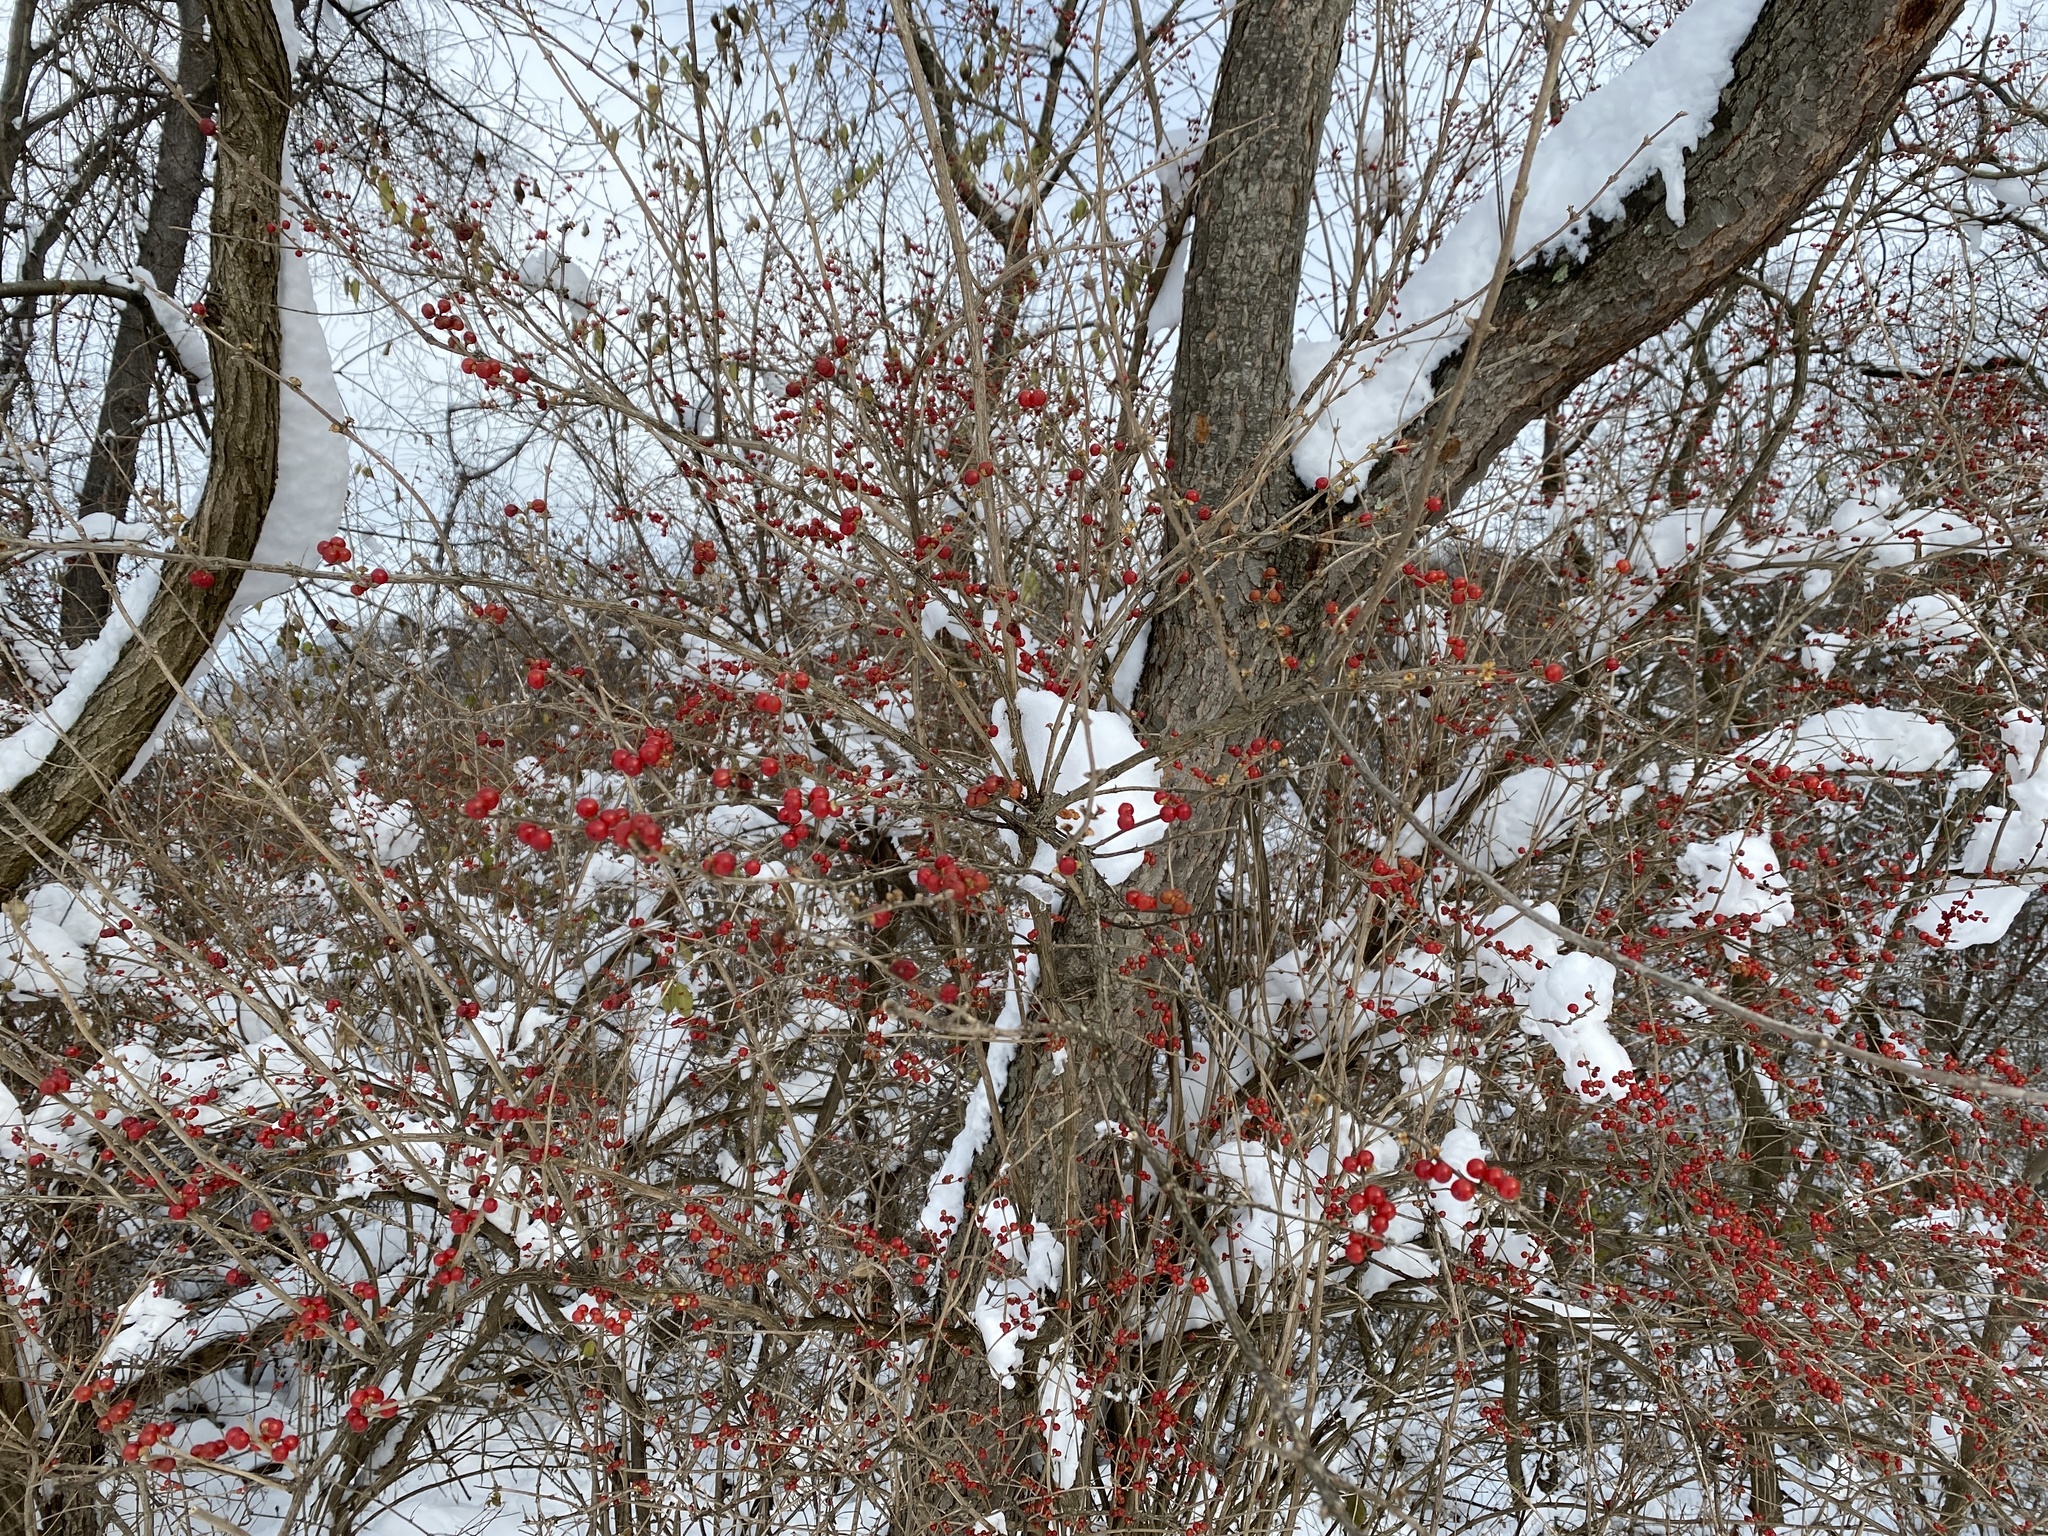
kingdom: Plantae
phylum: Tracheophyta
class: Magnoliopsida
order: Dipsacales
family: Caprifoliaceae
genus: Lonicera
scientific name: Lonicera maackii
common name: Amur honeysuckle
